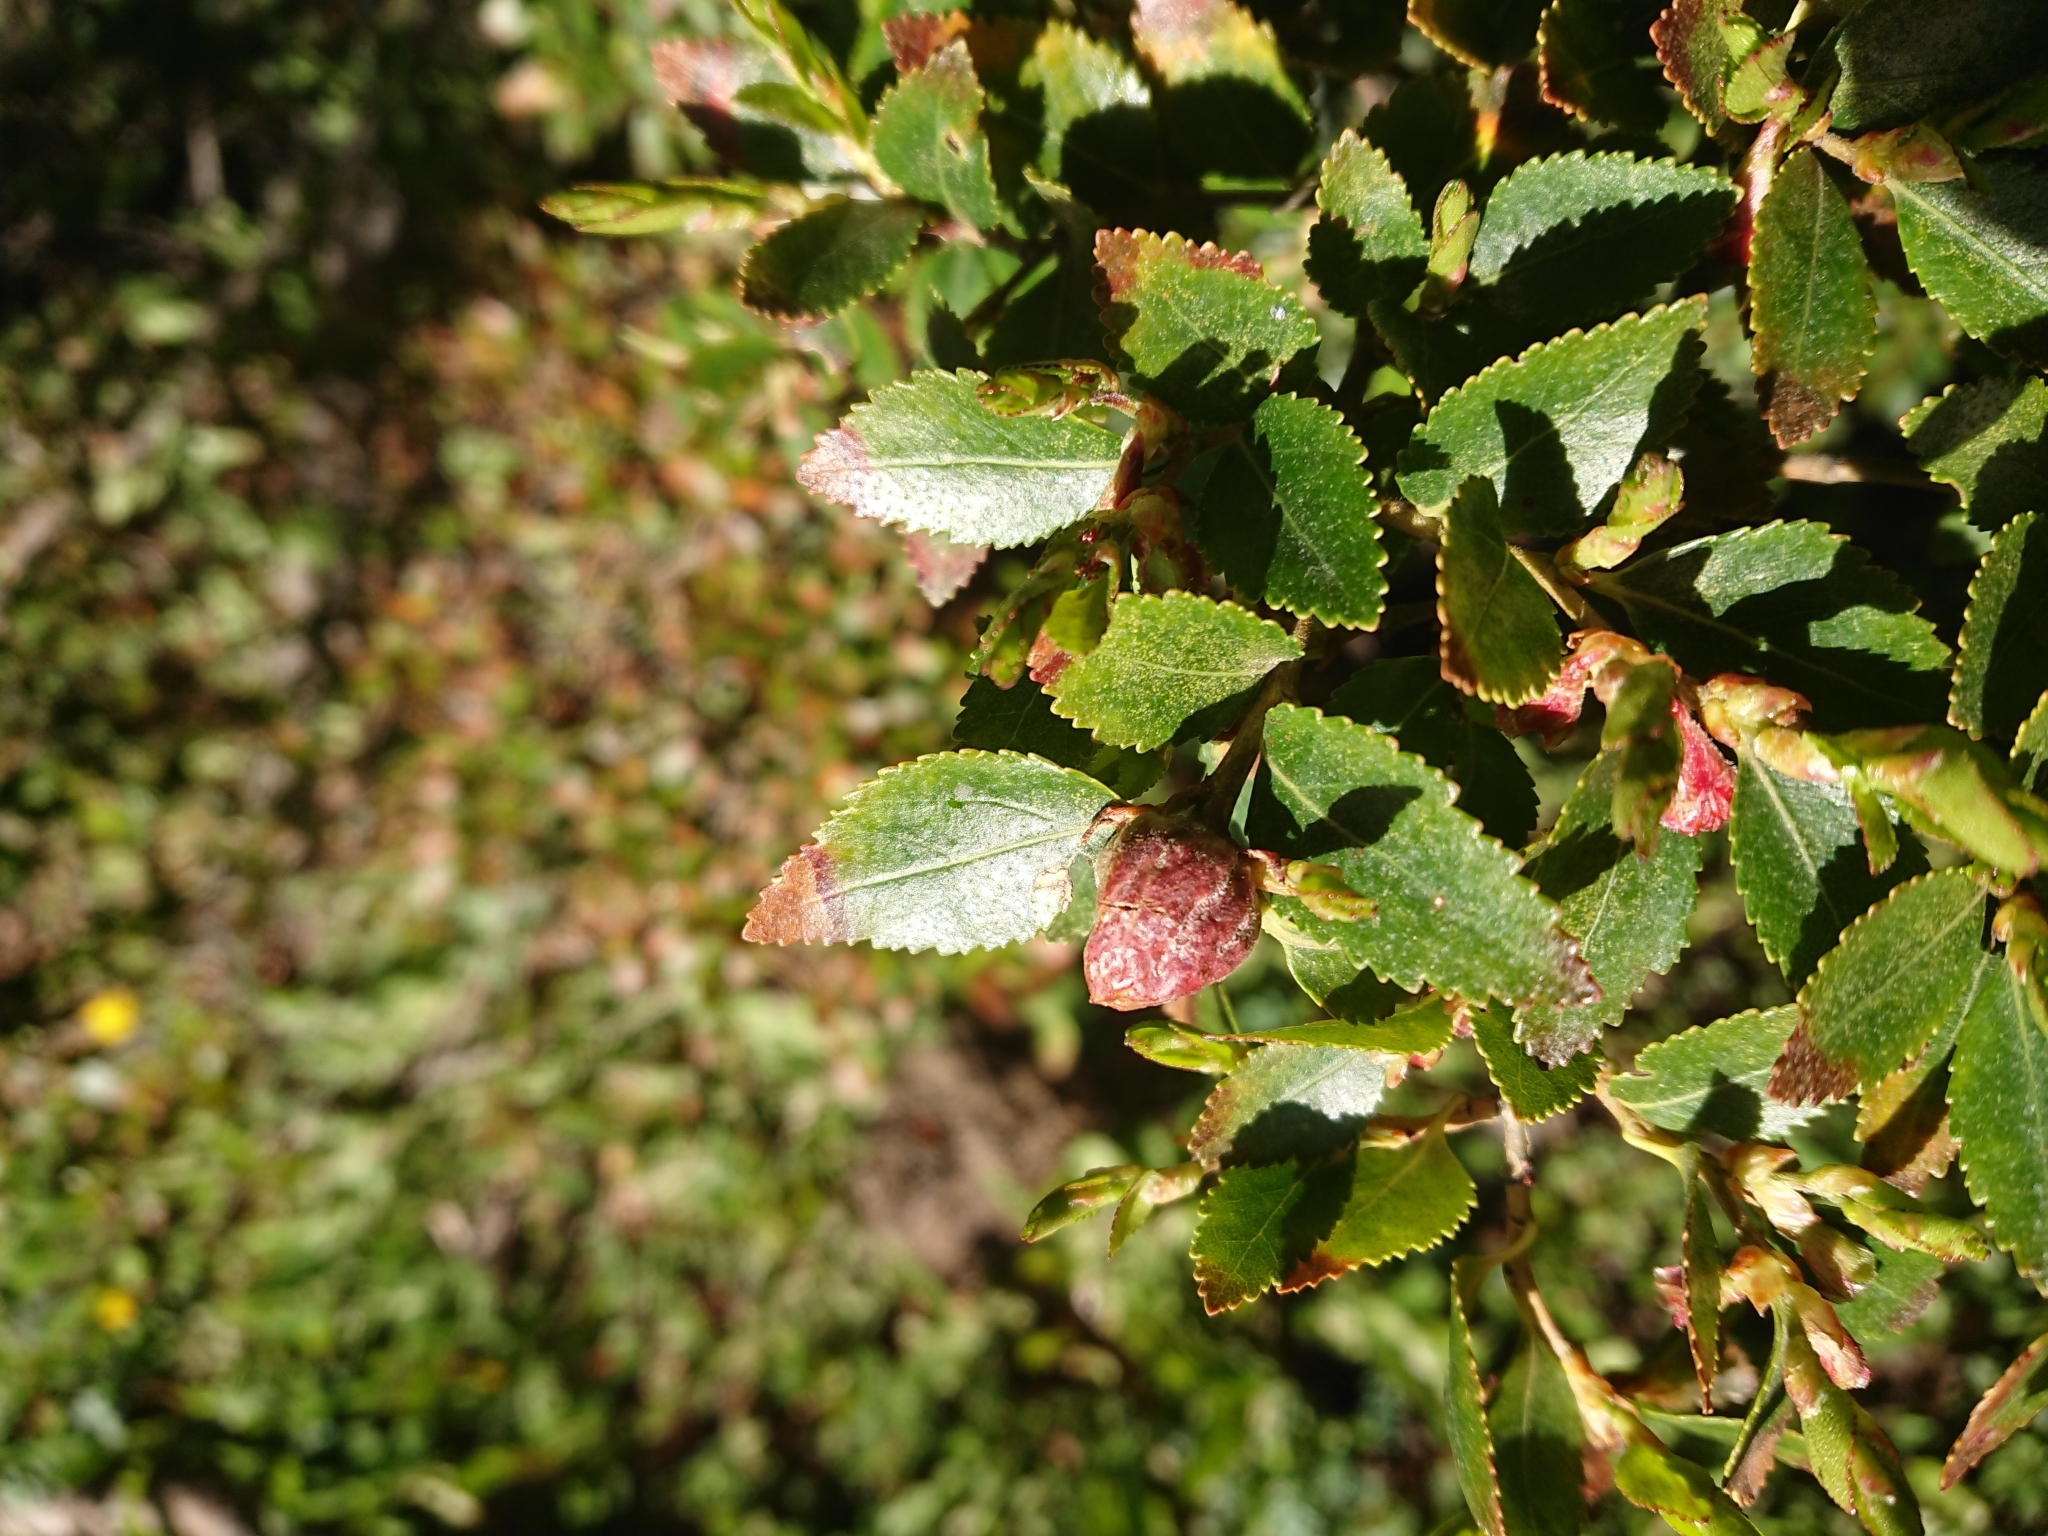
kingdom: Plantae
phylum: Tracheophyta
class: Magnoliopsida
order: Fagales
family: Nothofagaceae
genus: Nothofagus
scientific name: Nothofagus betuloides
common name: Magellan's beech
